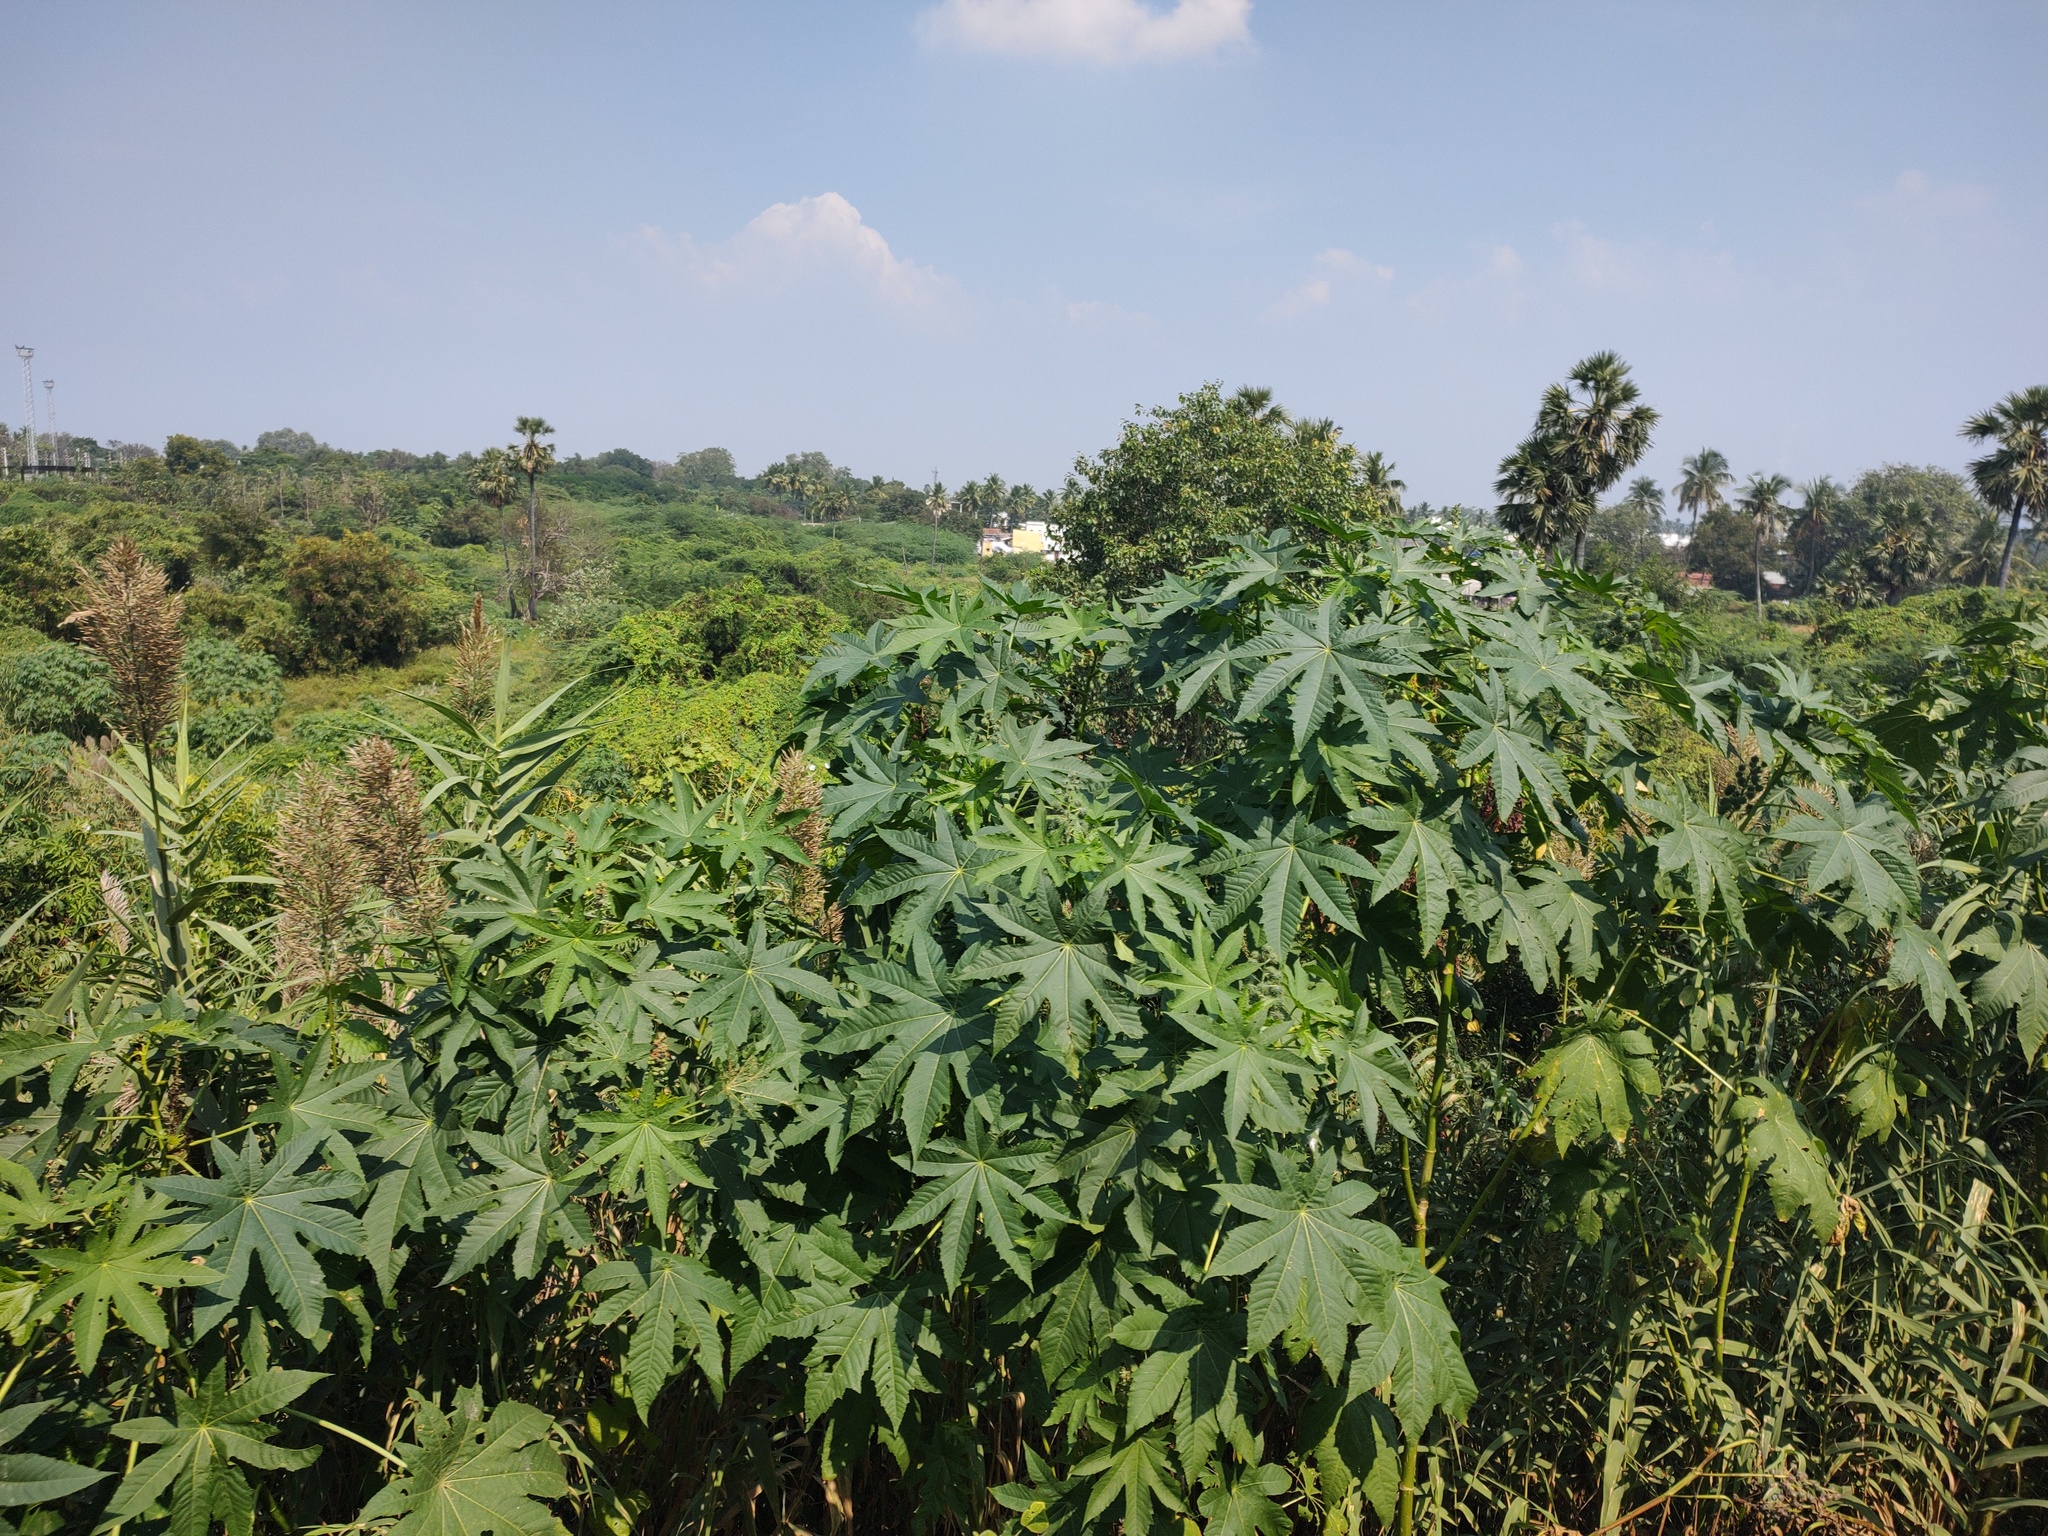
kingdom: Plantae
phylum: Tracheophyta
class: Magnoliopsida
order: Malpighiales
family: Euphorbiaceae
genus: Ricinus
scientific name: Ricinus communis
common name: Castor-oil-plant
